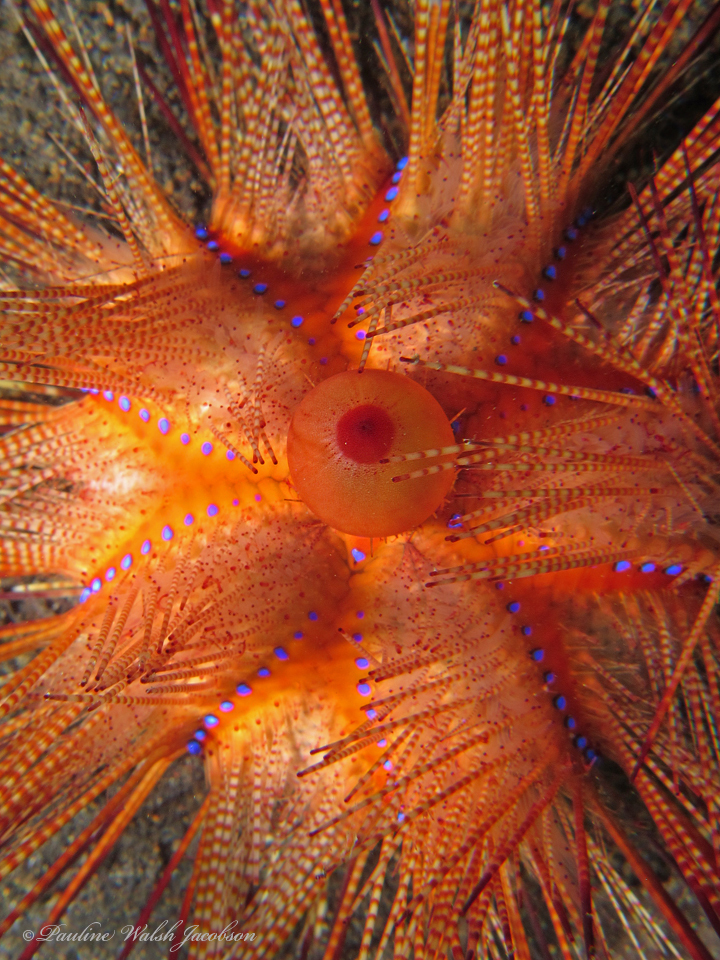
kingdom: Animalia
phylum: Echinodermata
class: Echinoidea
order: Diadematoida
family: Diadematidae
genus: Astropyga
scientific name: Astropyga radiata
